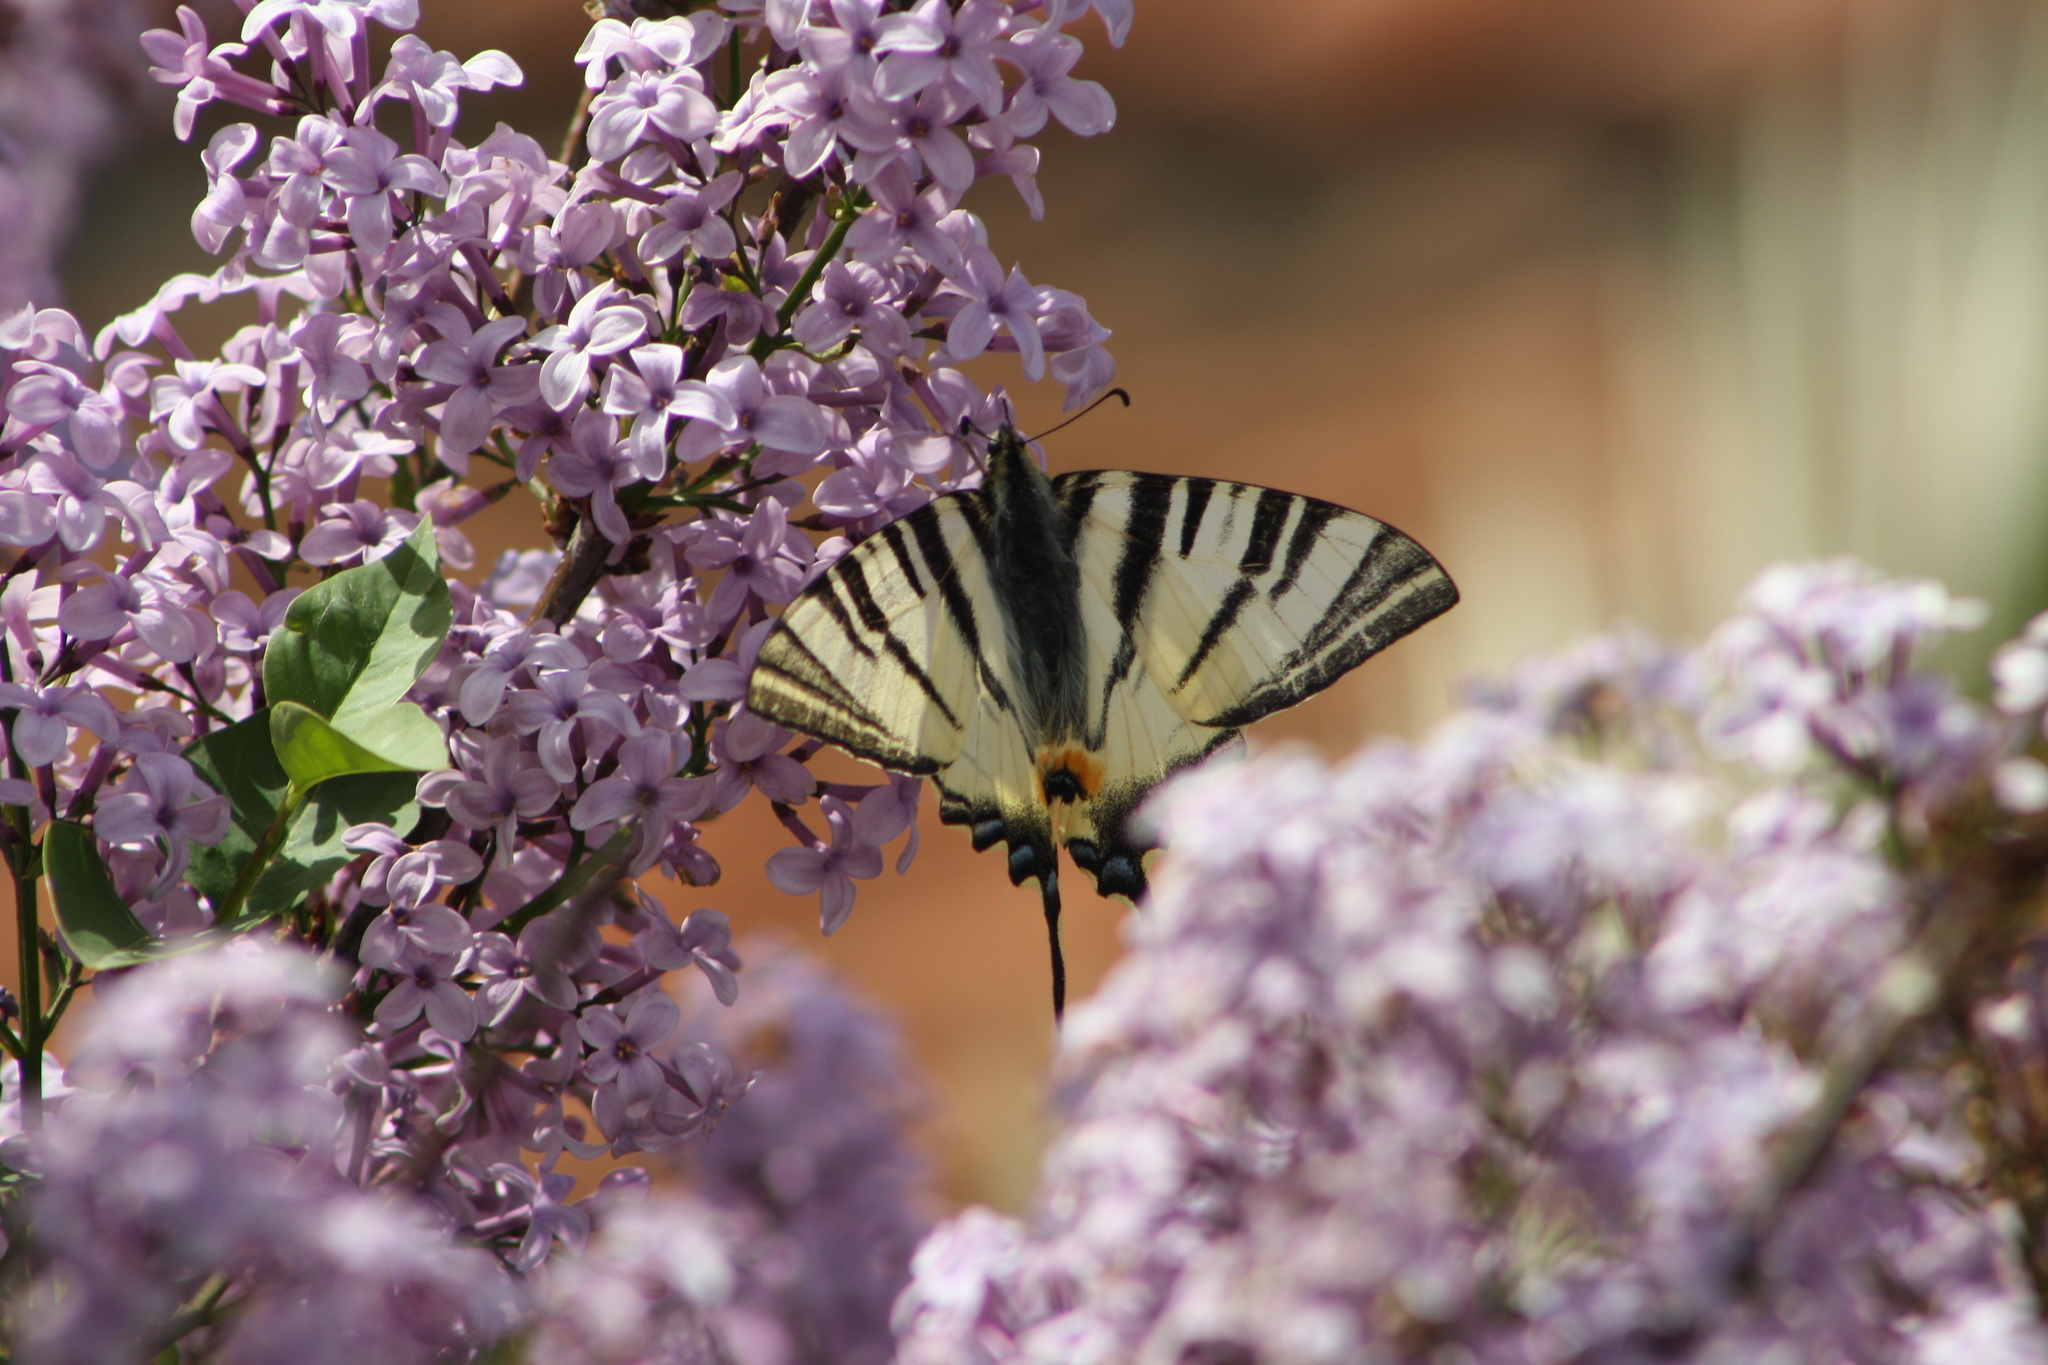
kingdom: Animalia
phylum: Arthropoda
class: Insecta
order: Lepidoptera
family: Papilionidae
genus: Iphiclides
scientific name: Iphiclides podalirius
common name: Scarce swallowtail
